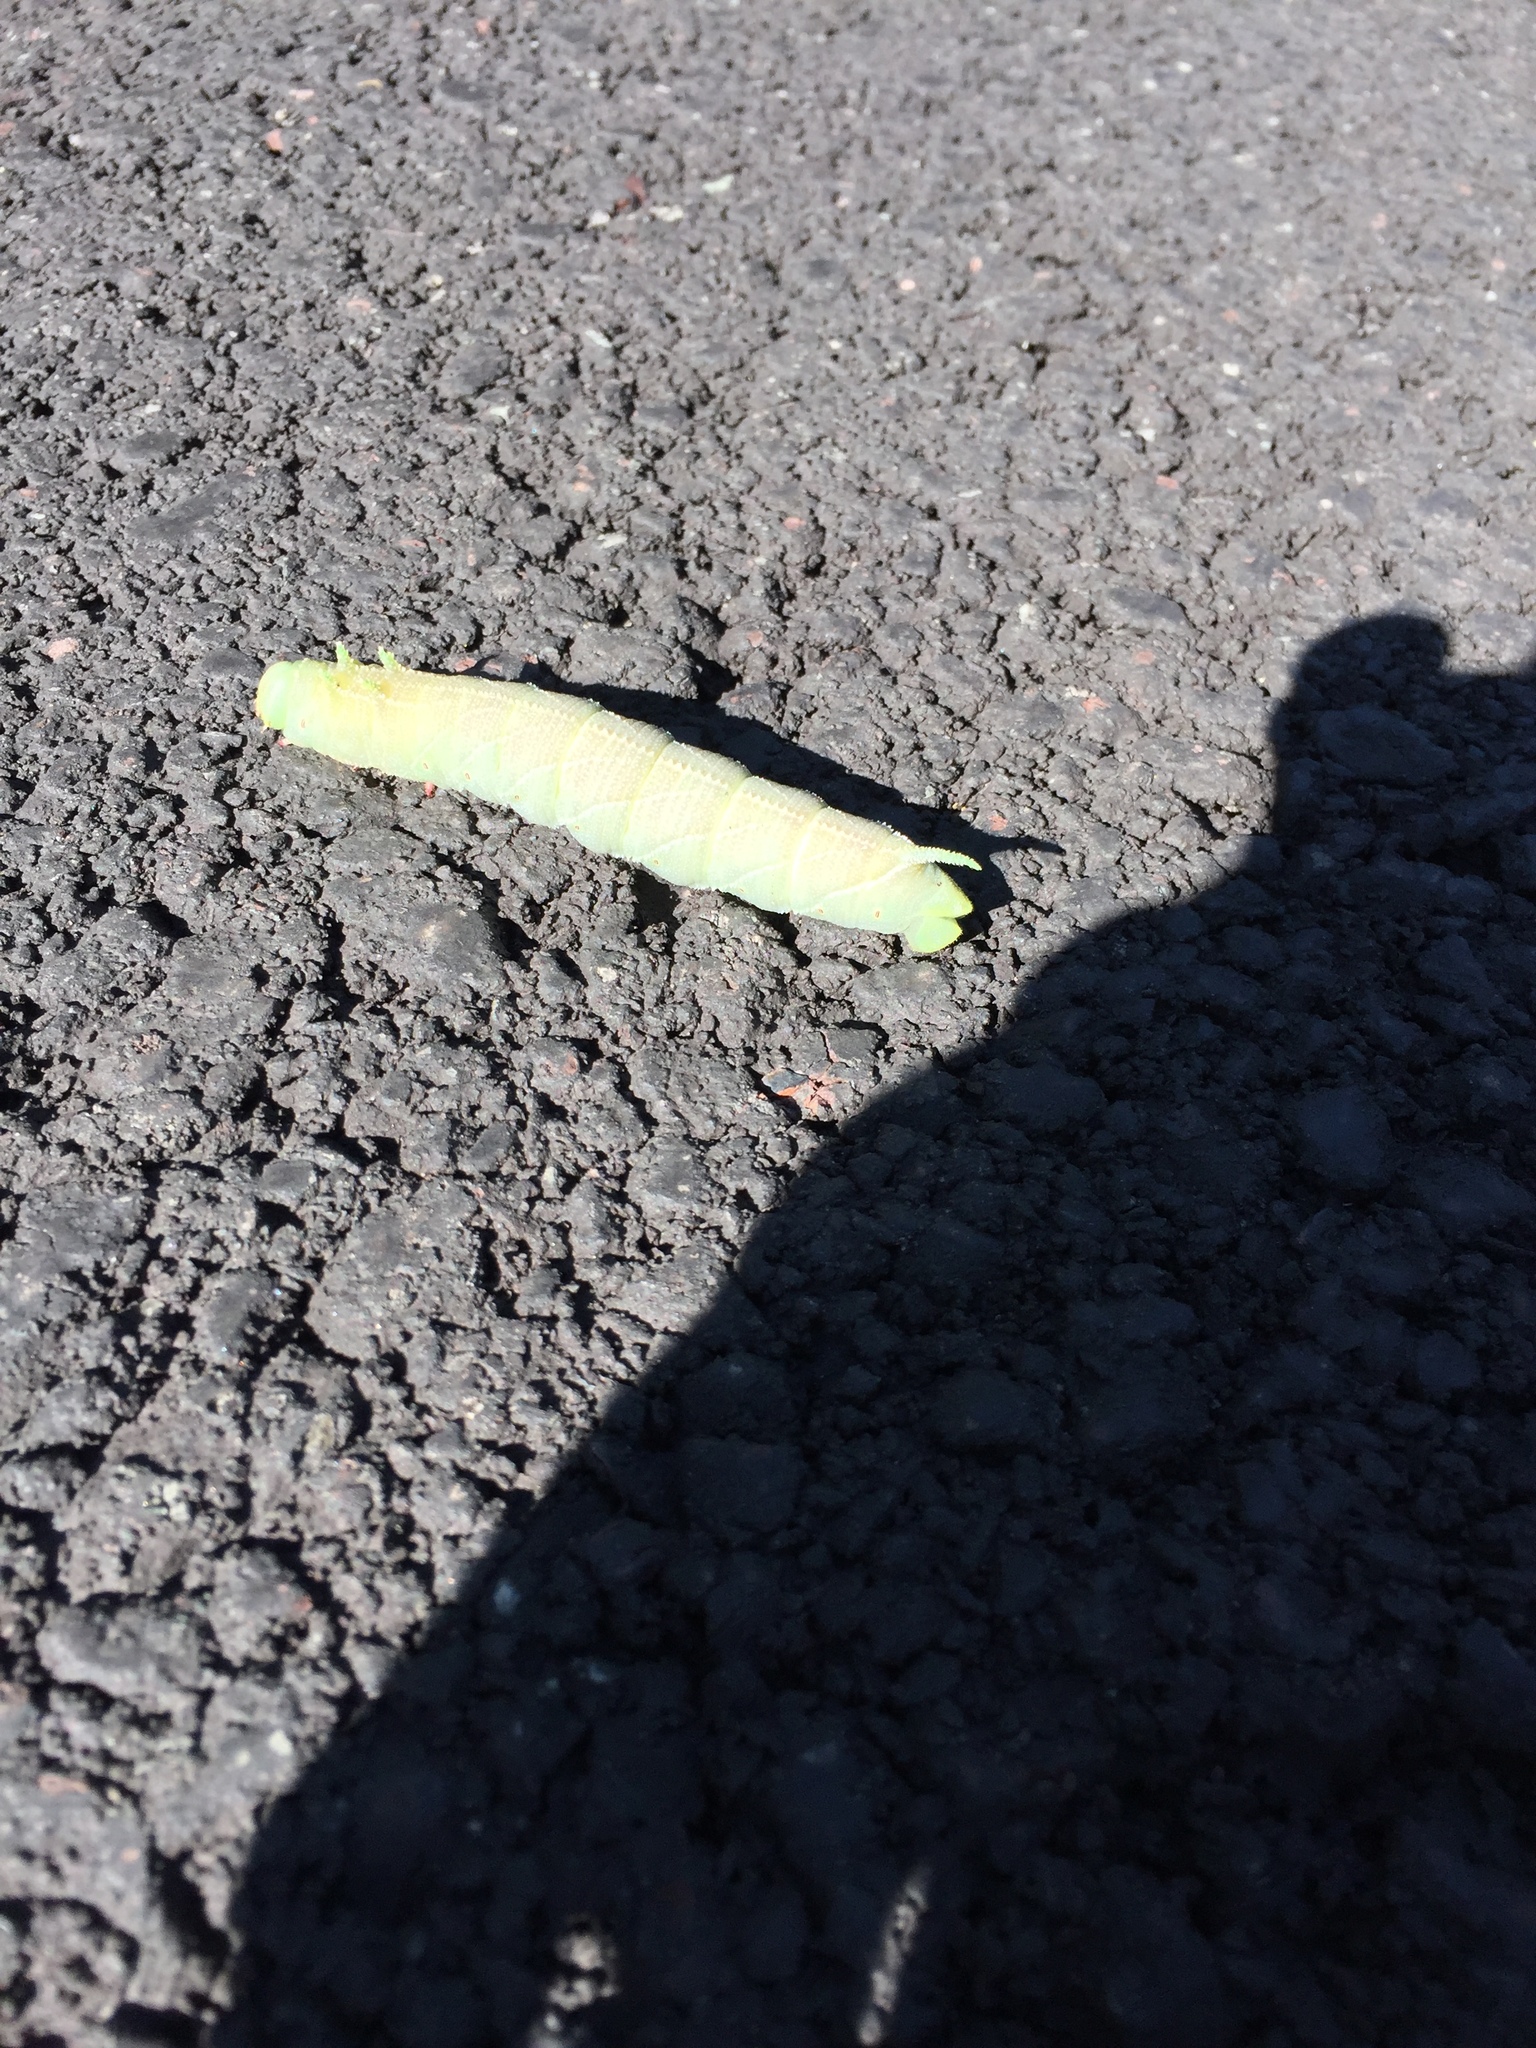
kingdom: Animalia
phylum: Arthropoda
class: Insecta
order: Lepidoptera
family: Sphingidae
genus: Ceratomia
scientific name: Ceratomia amyntor
